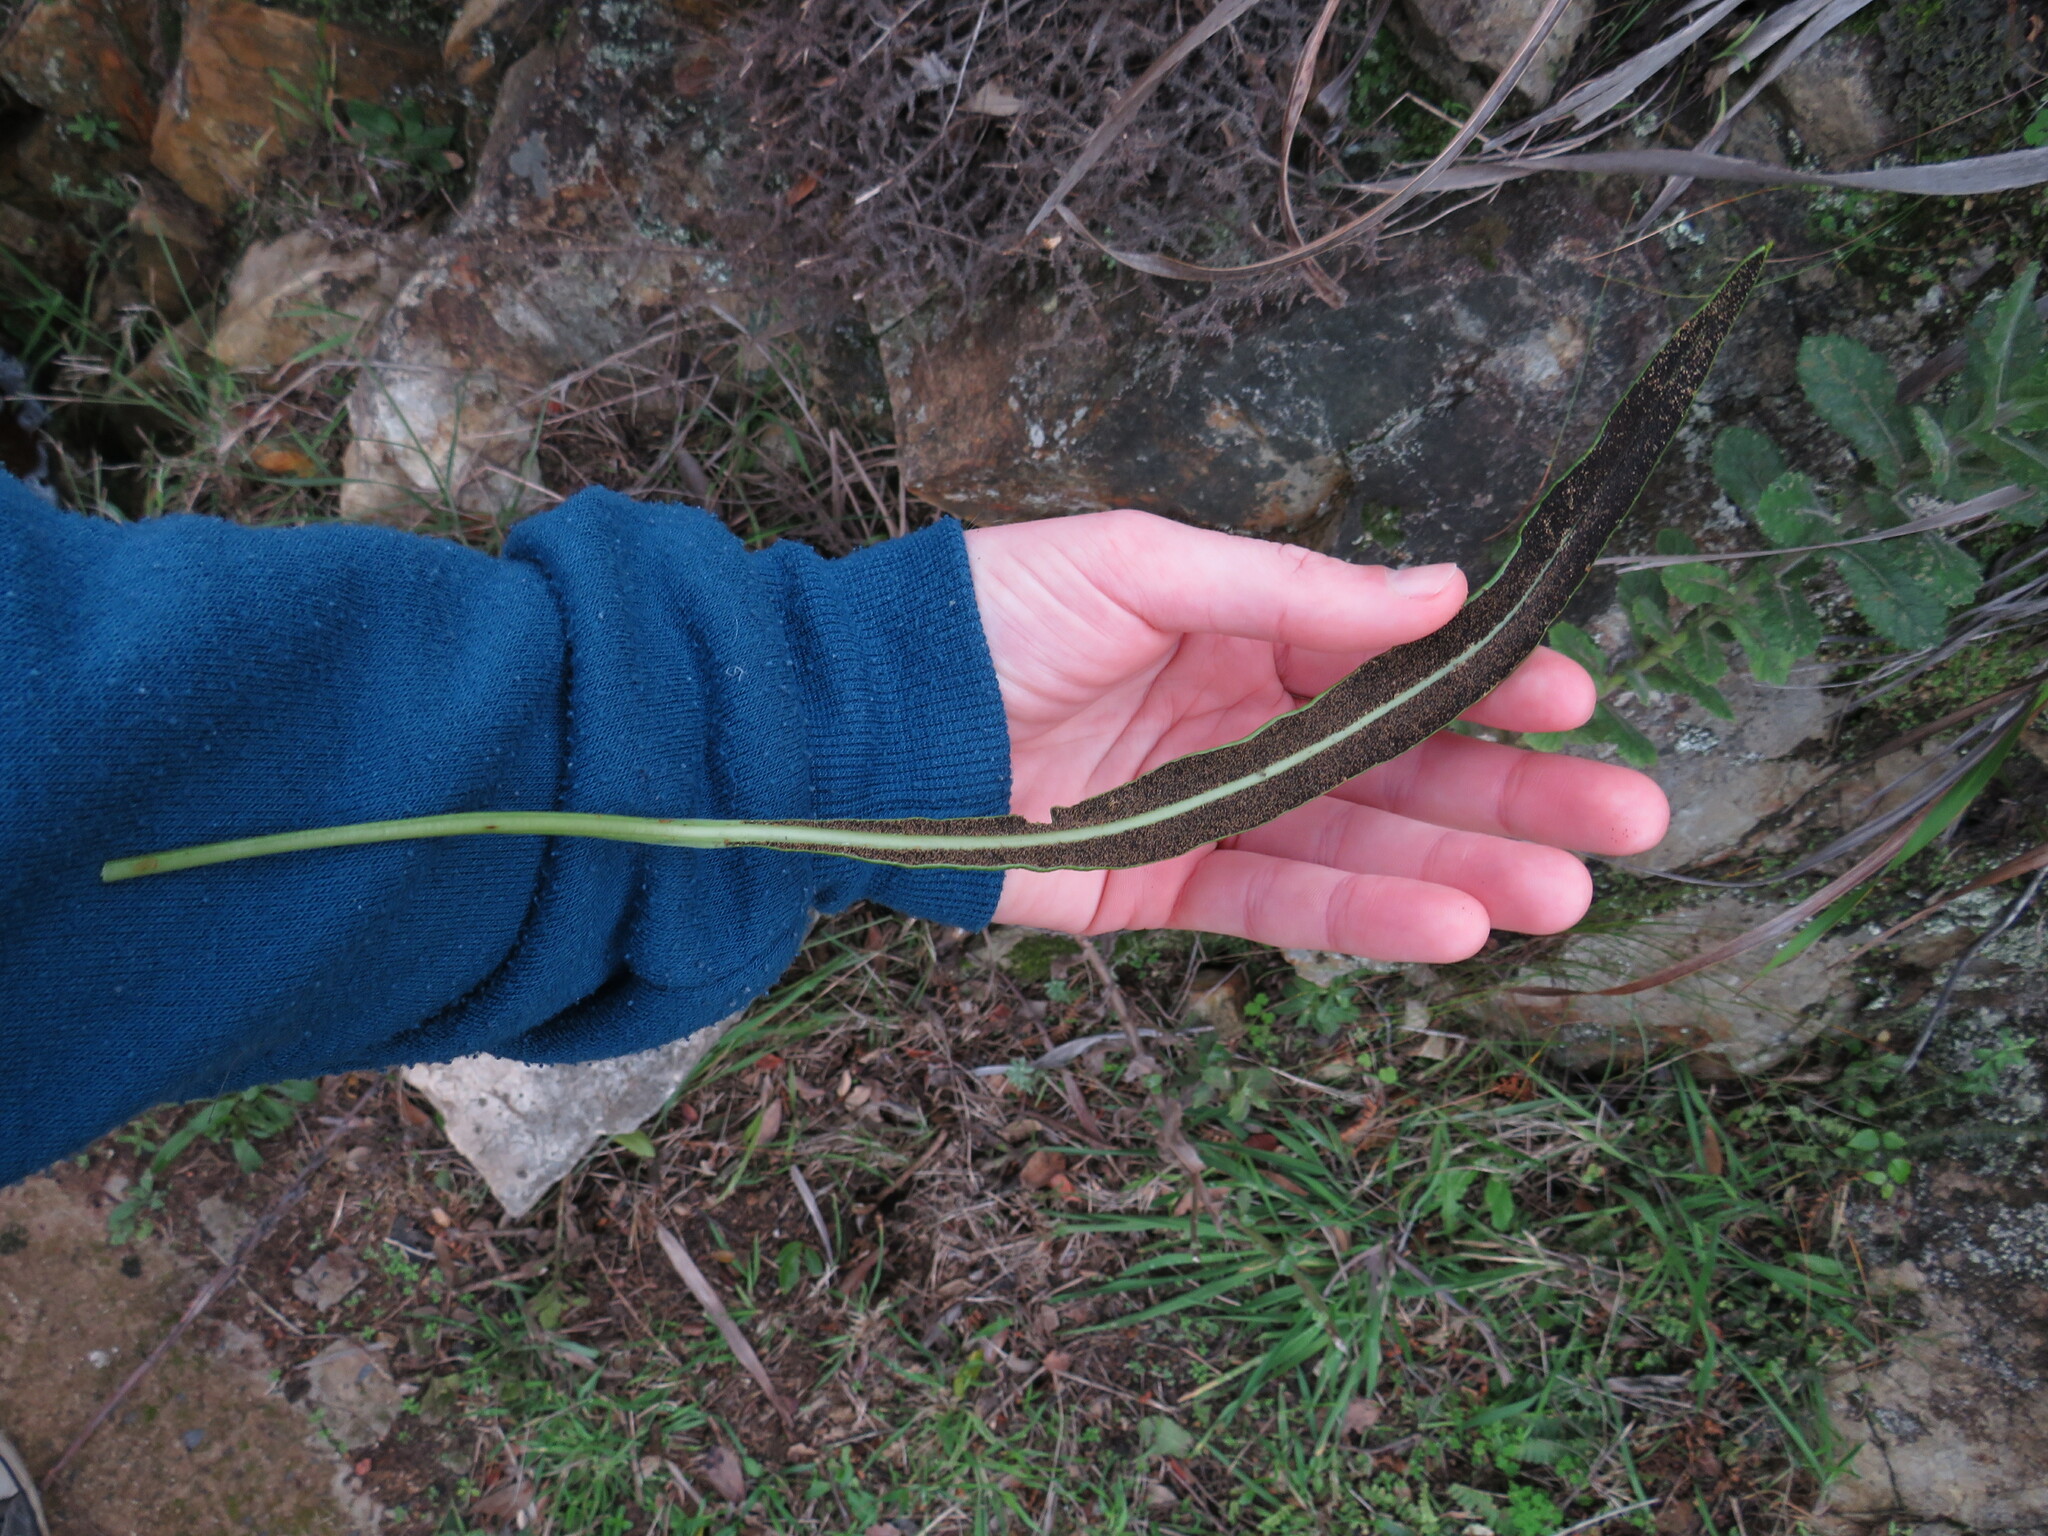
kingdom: Plantae
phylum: Tracheophyta
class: Polypodiopsida
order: Polypodiales
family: Dryopteridaceae
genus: Elaphoglossum
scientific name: Elaphoglossum acrostichoides
